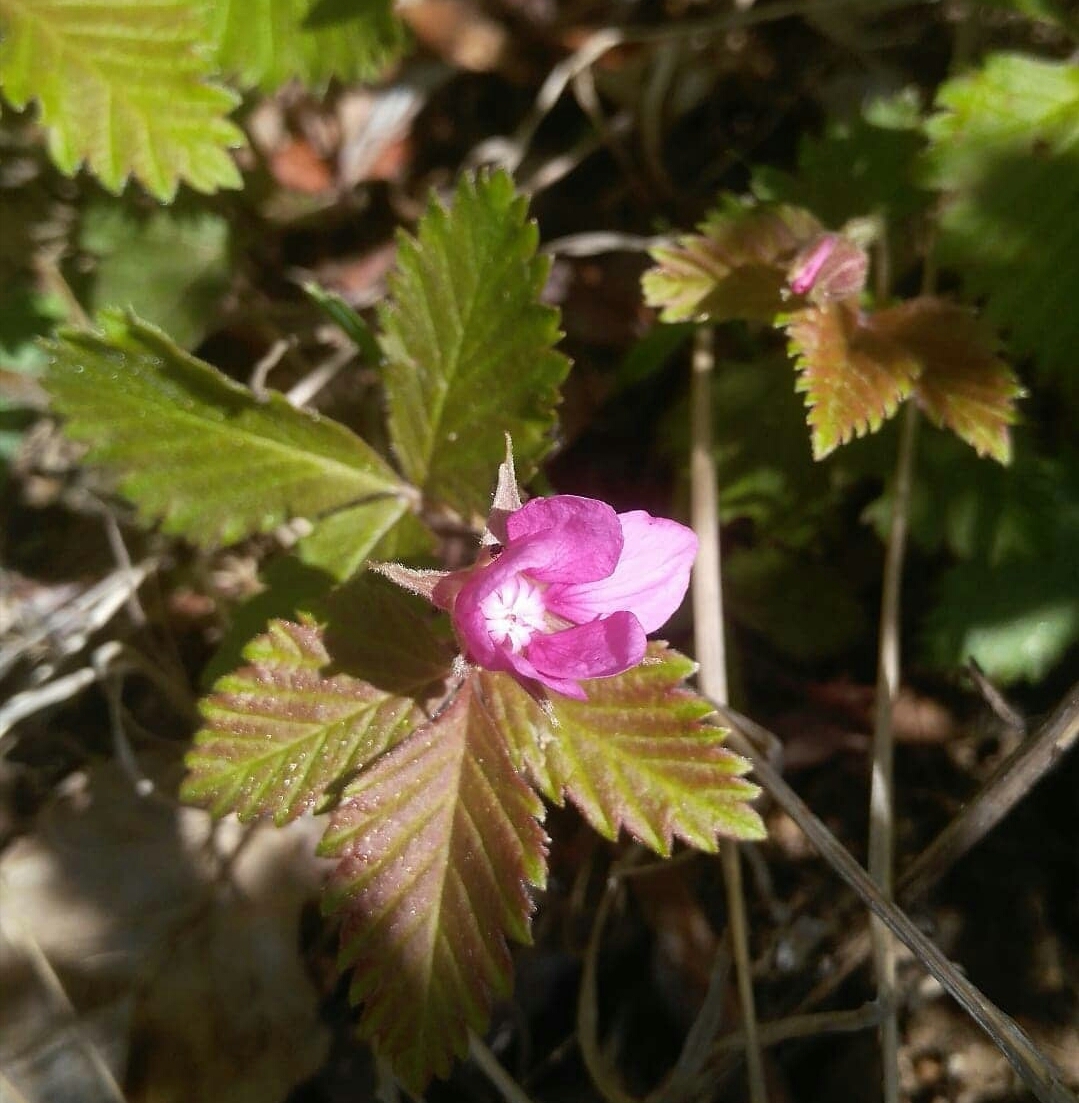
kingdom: Plantae
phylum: Tracheophyta
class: Magnoliopsida
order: Rosales
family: Rosaceae
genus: Rubus
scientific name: Rubus arcticus
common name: Arctic bramble
